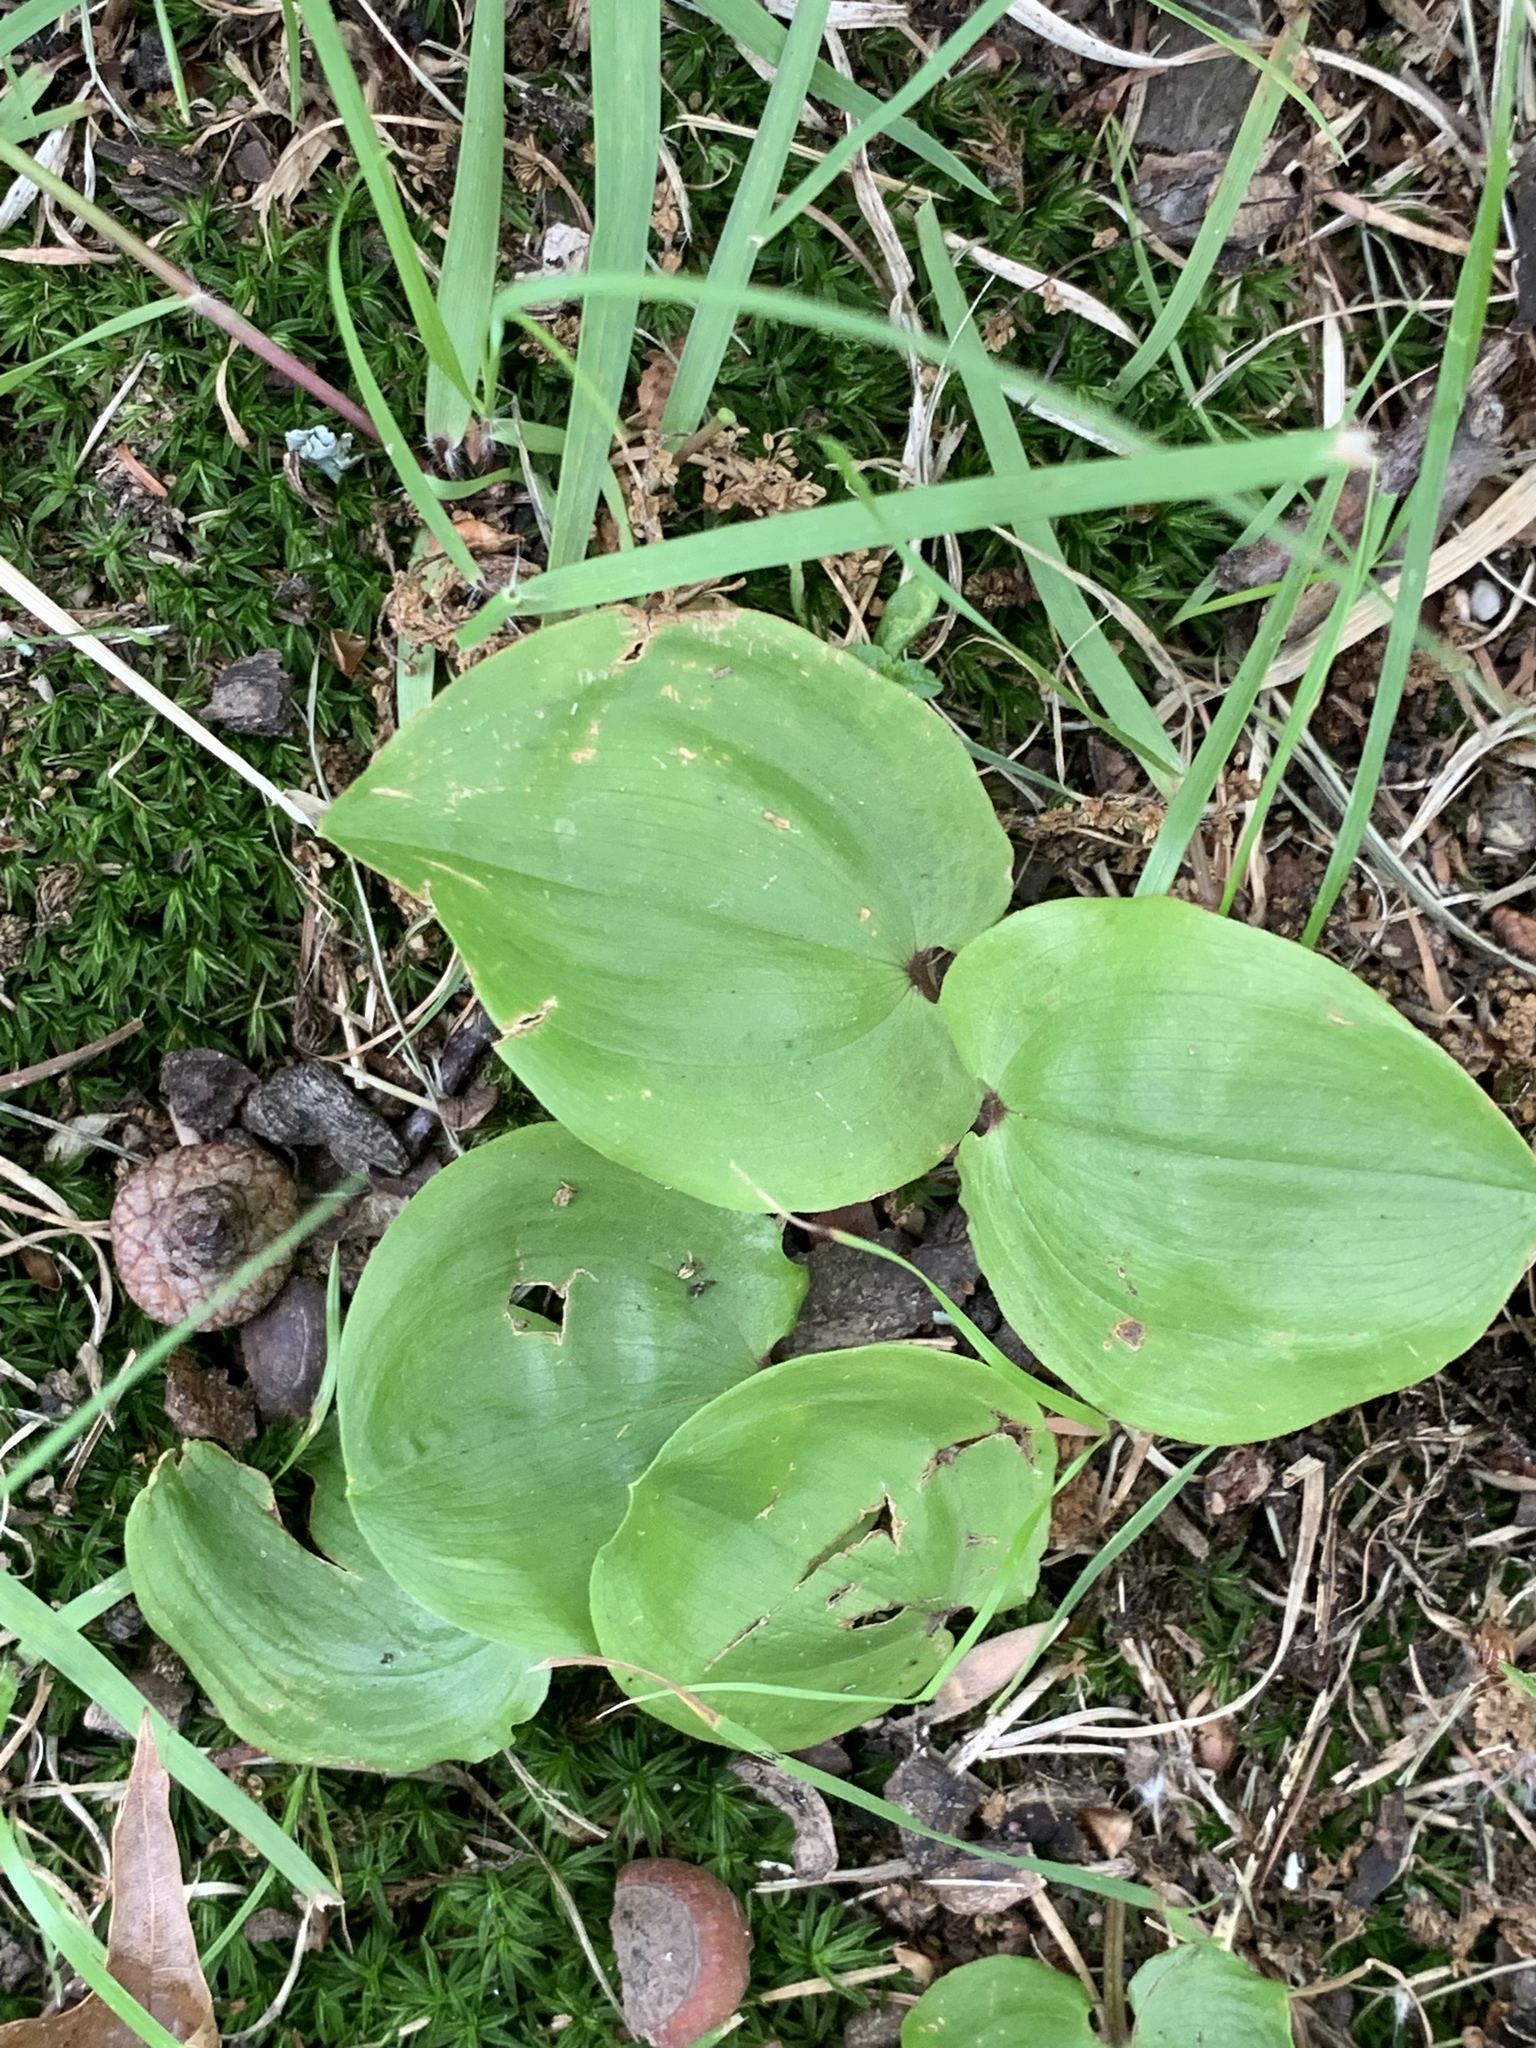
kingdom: Plantae
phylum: Tracheophyta
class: Liliopsida
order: Asparagales
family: Asparagaceae
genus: Maianthemum
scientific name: Maianthemum canadense
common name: False lily-of-the-valley
